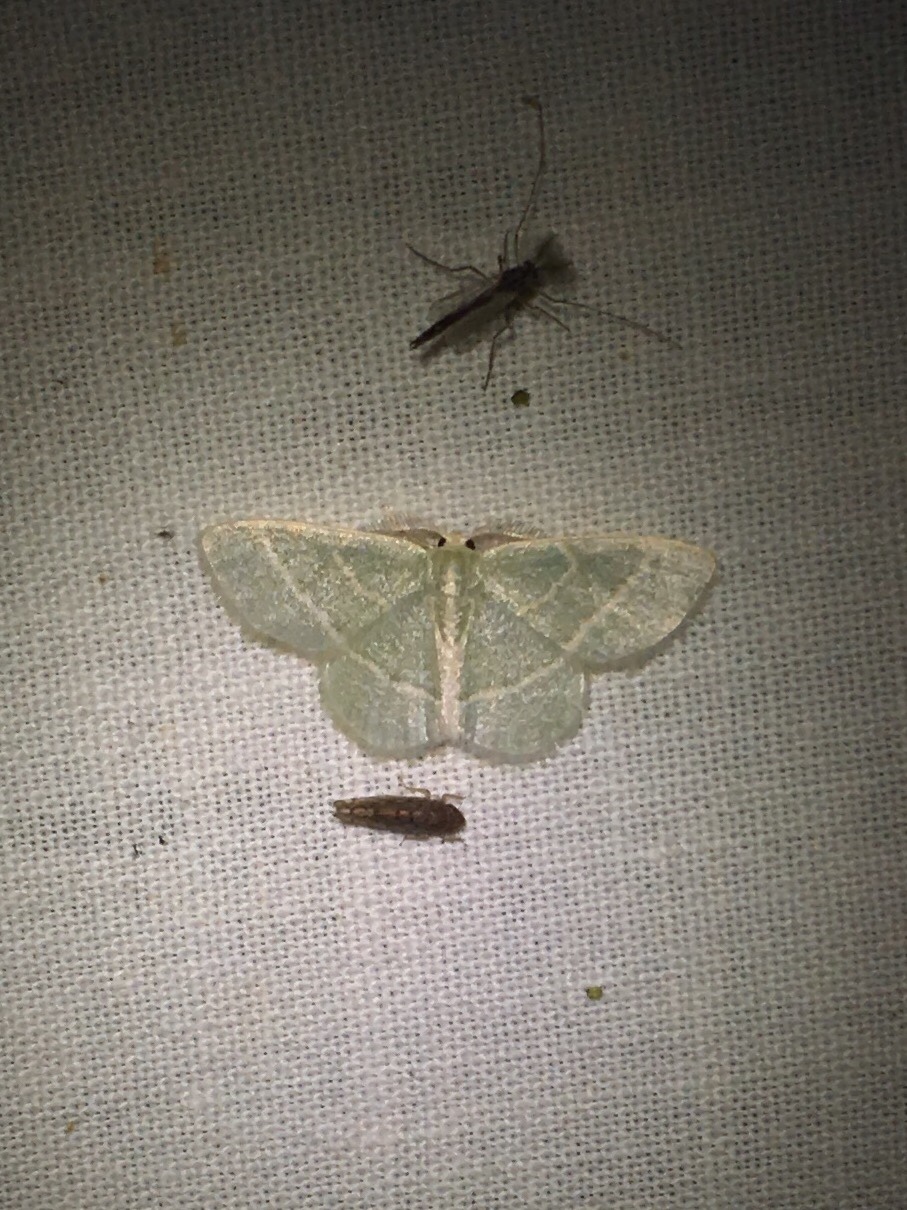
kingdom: Animalia
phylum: Arthropoda
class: Insecta
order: Lepidoptera
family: Geometridae
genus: Chlorochlamys
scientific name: Chlorochlamys chloroleucaria
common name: Blackberry looper
